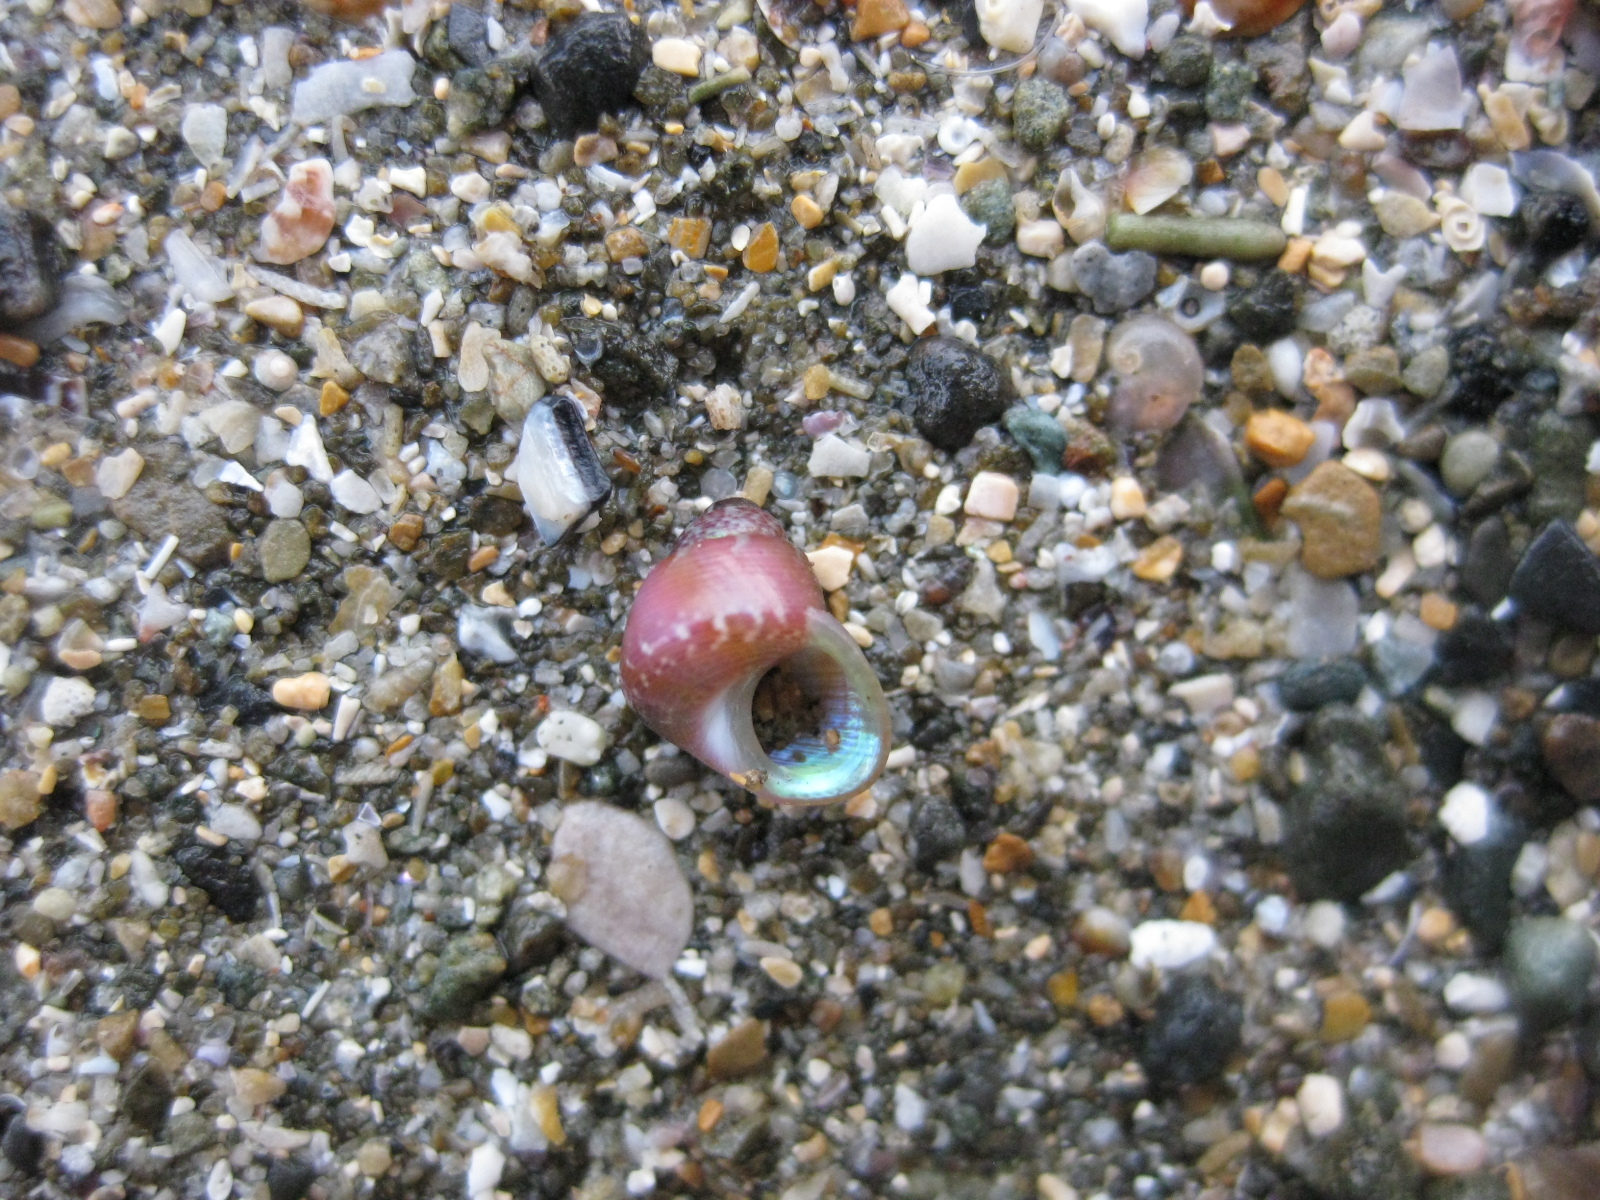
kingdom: Animalia
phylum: Mollusca
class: Gastropoda
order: Trochida
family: Trochidae
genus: Cantharidus
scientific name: Cantharidus dilatatus
